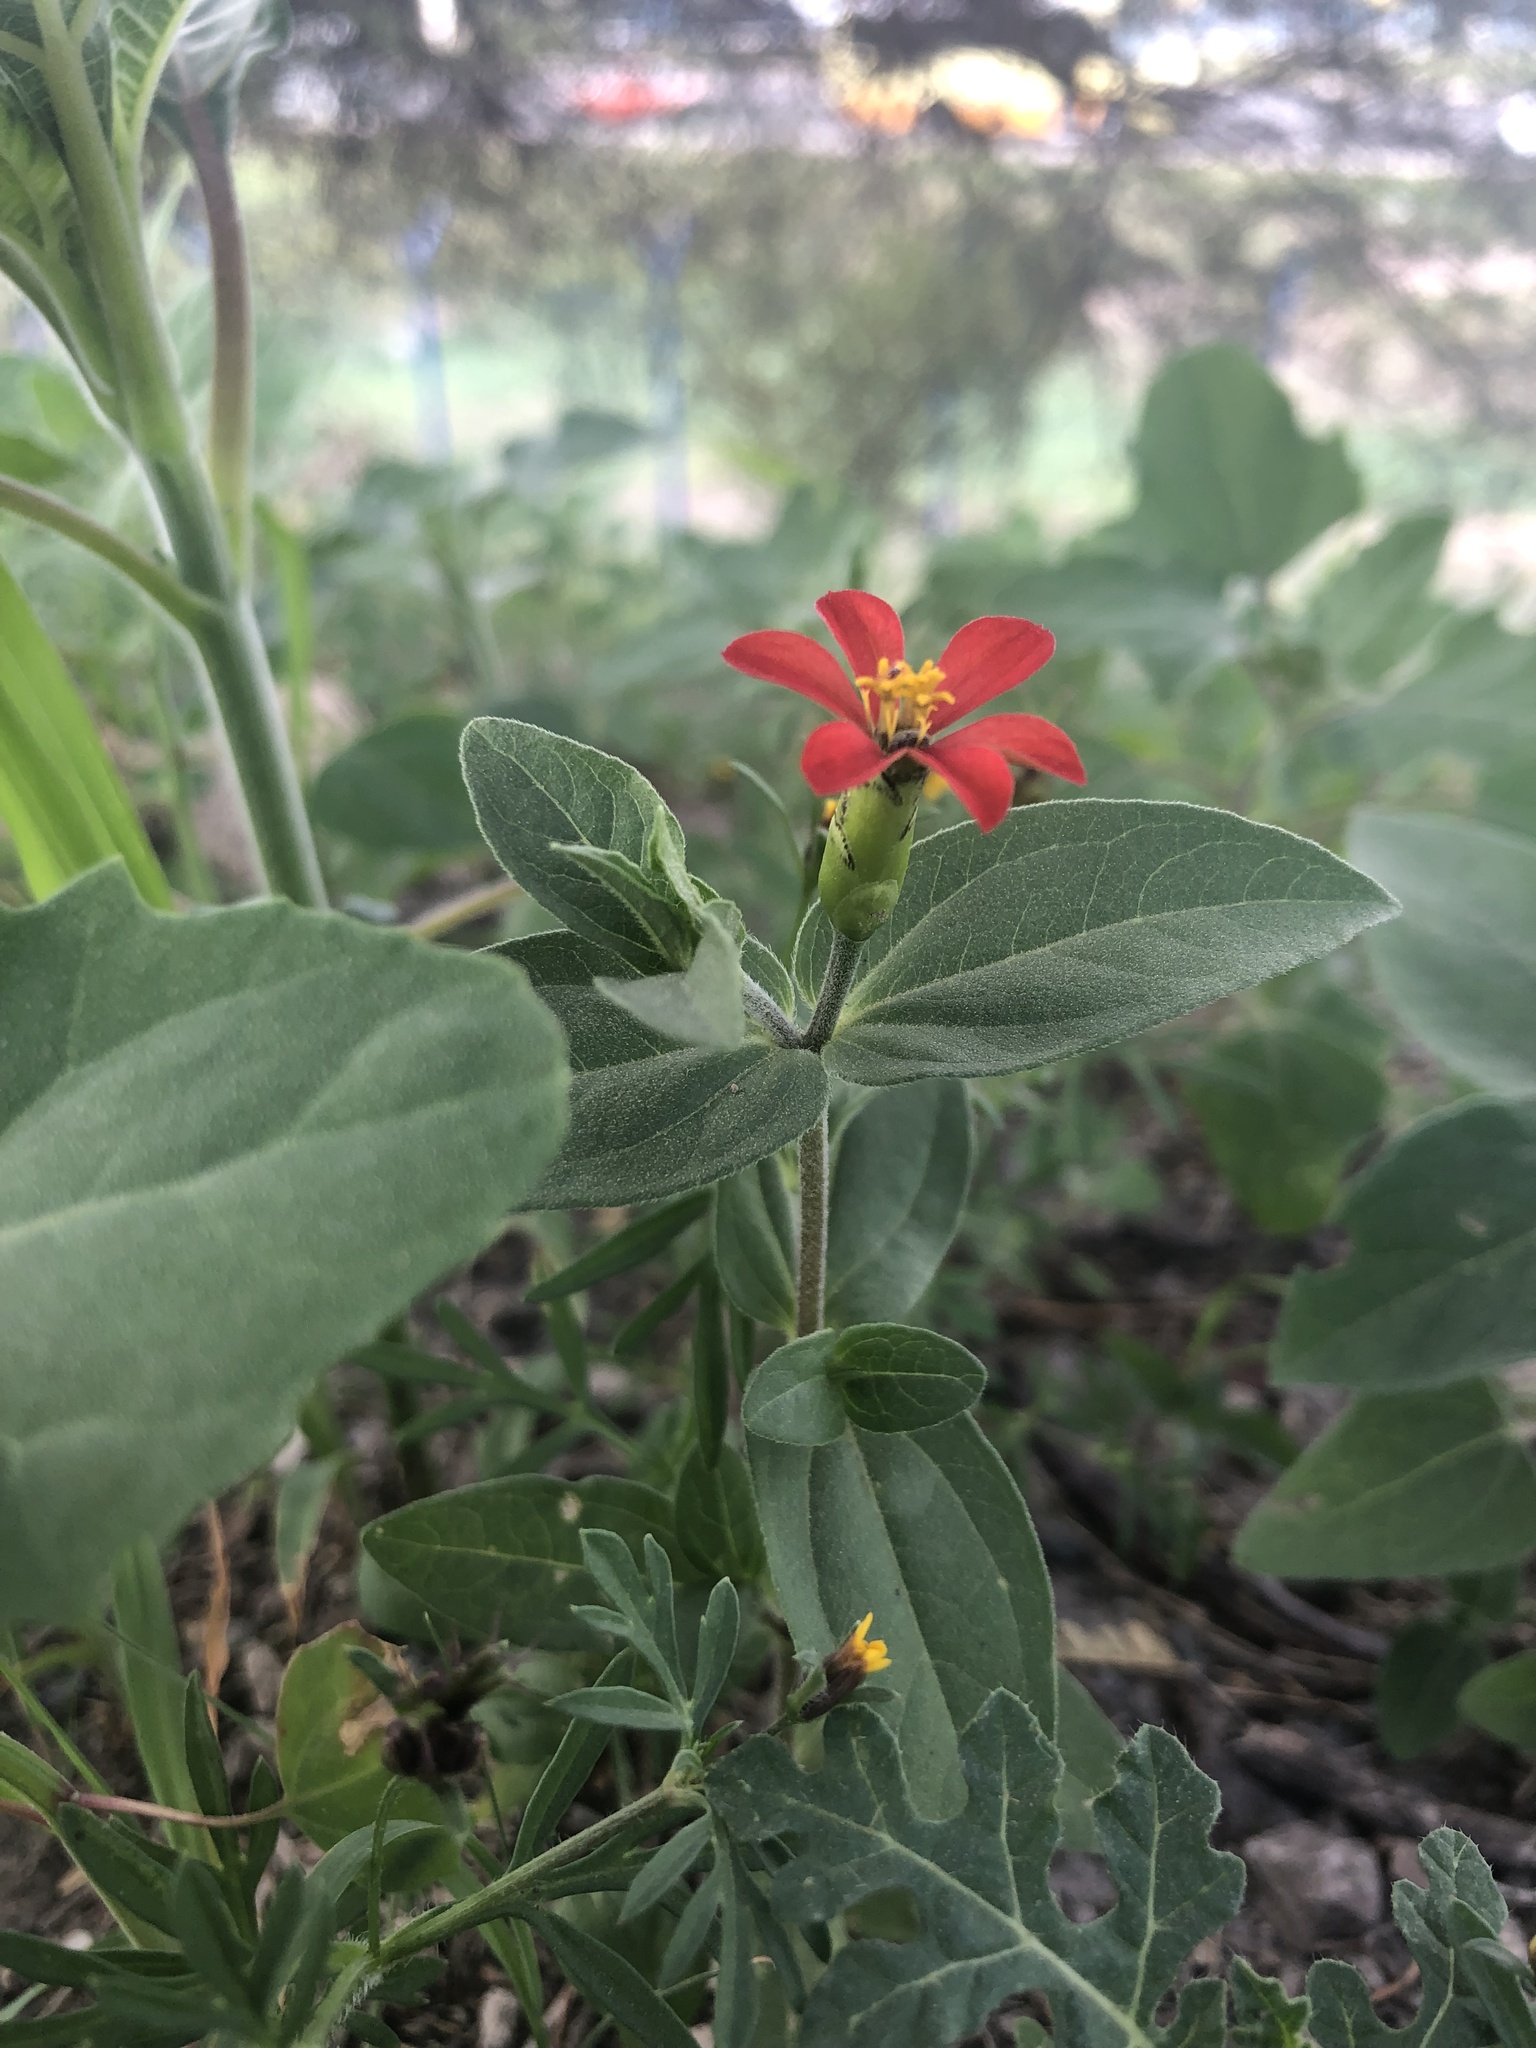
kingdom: Plantae
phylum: Tracheophyta
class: Magnoliopsida
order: Asterales
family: Asteraceae
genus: Zinnia
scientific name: Zinnia peruviana
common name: Peruvian zinnia
